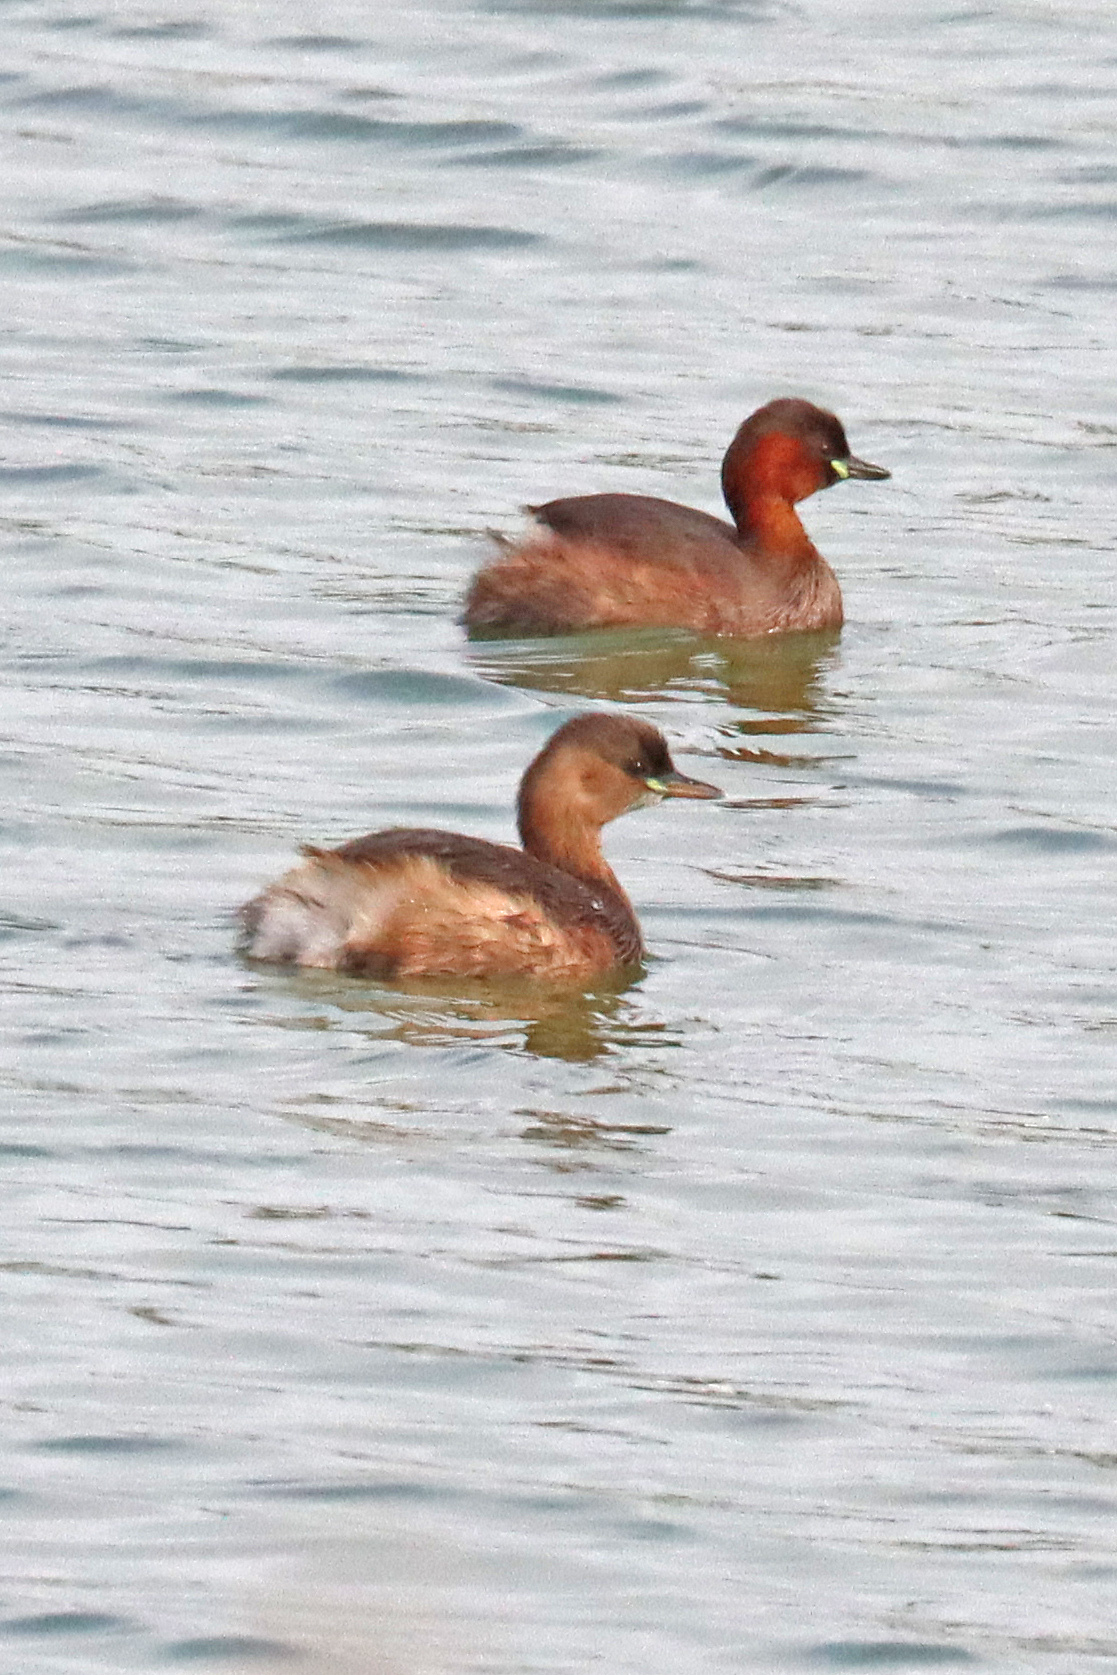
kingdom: Animalia
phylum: Chordata
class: Aves
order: Podicipediformes
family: Podicipedidae
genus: Tachybaptus
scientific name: Tachybaptus ruficollis
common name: Little grebe
